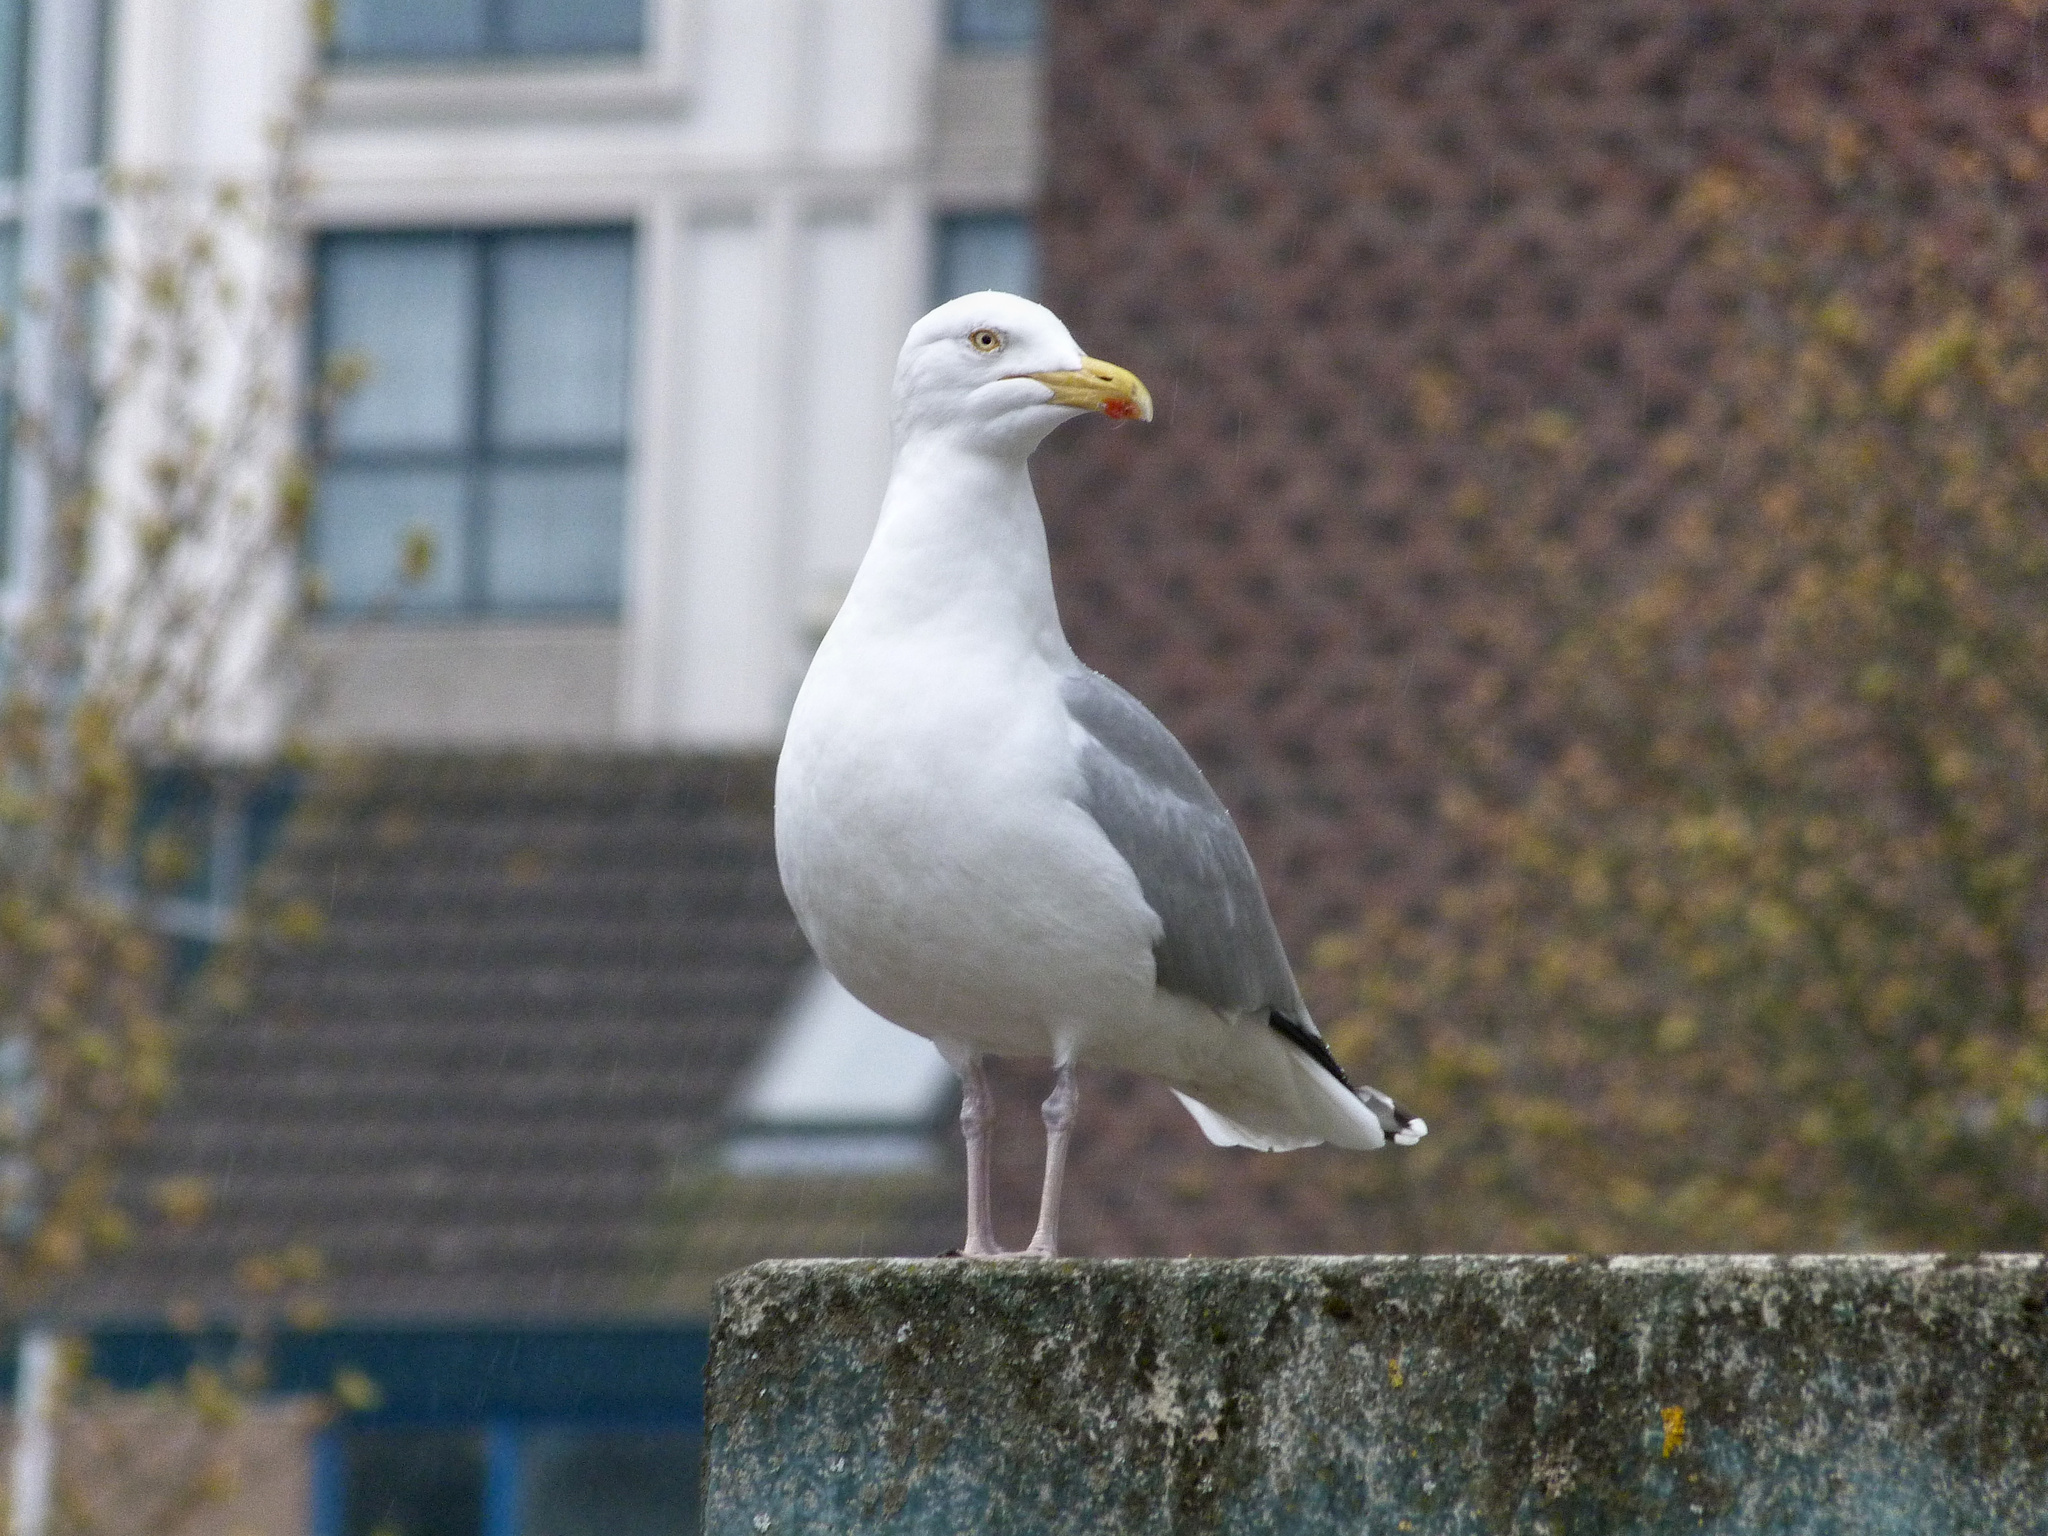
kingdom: Animalia
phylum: Chordata
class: Aves
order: Charadriiformes
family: Laridae
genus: Larus
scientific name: Larus argentatus
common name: Herring gull
